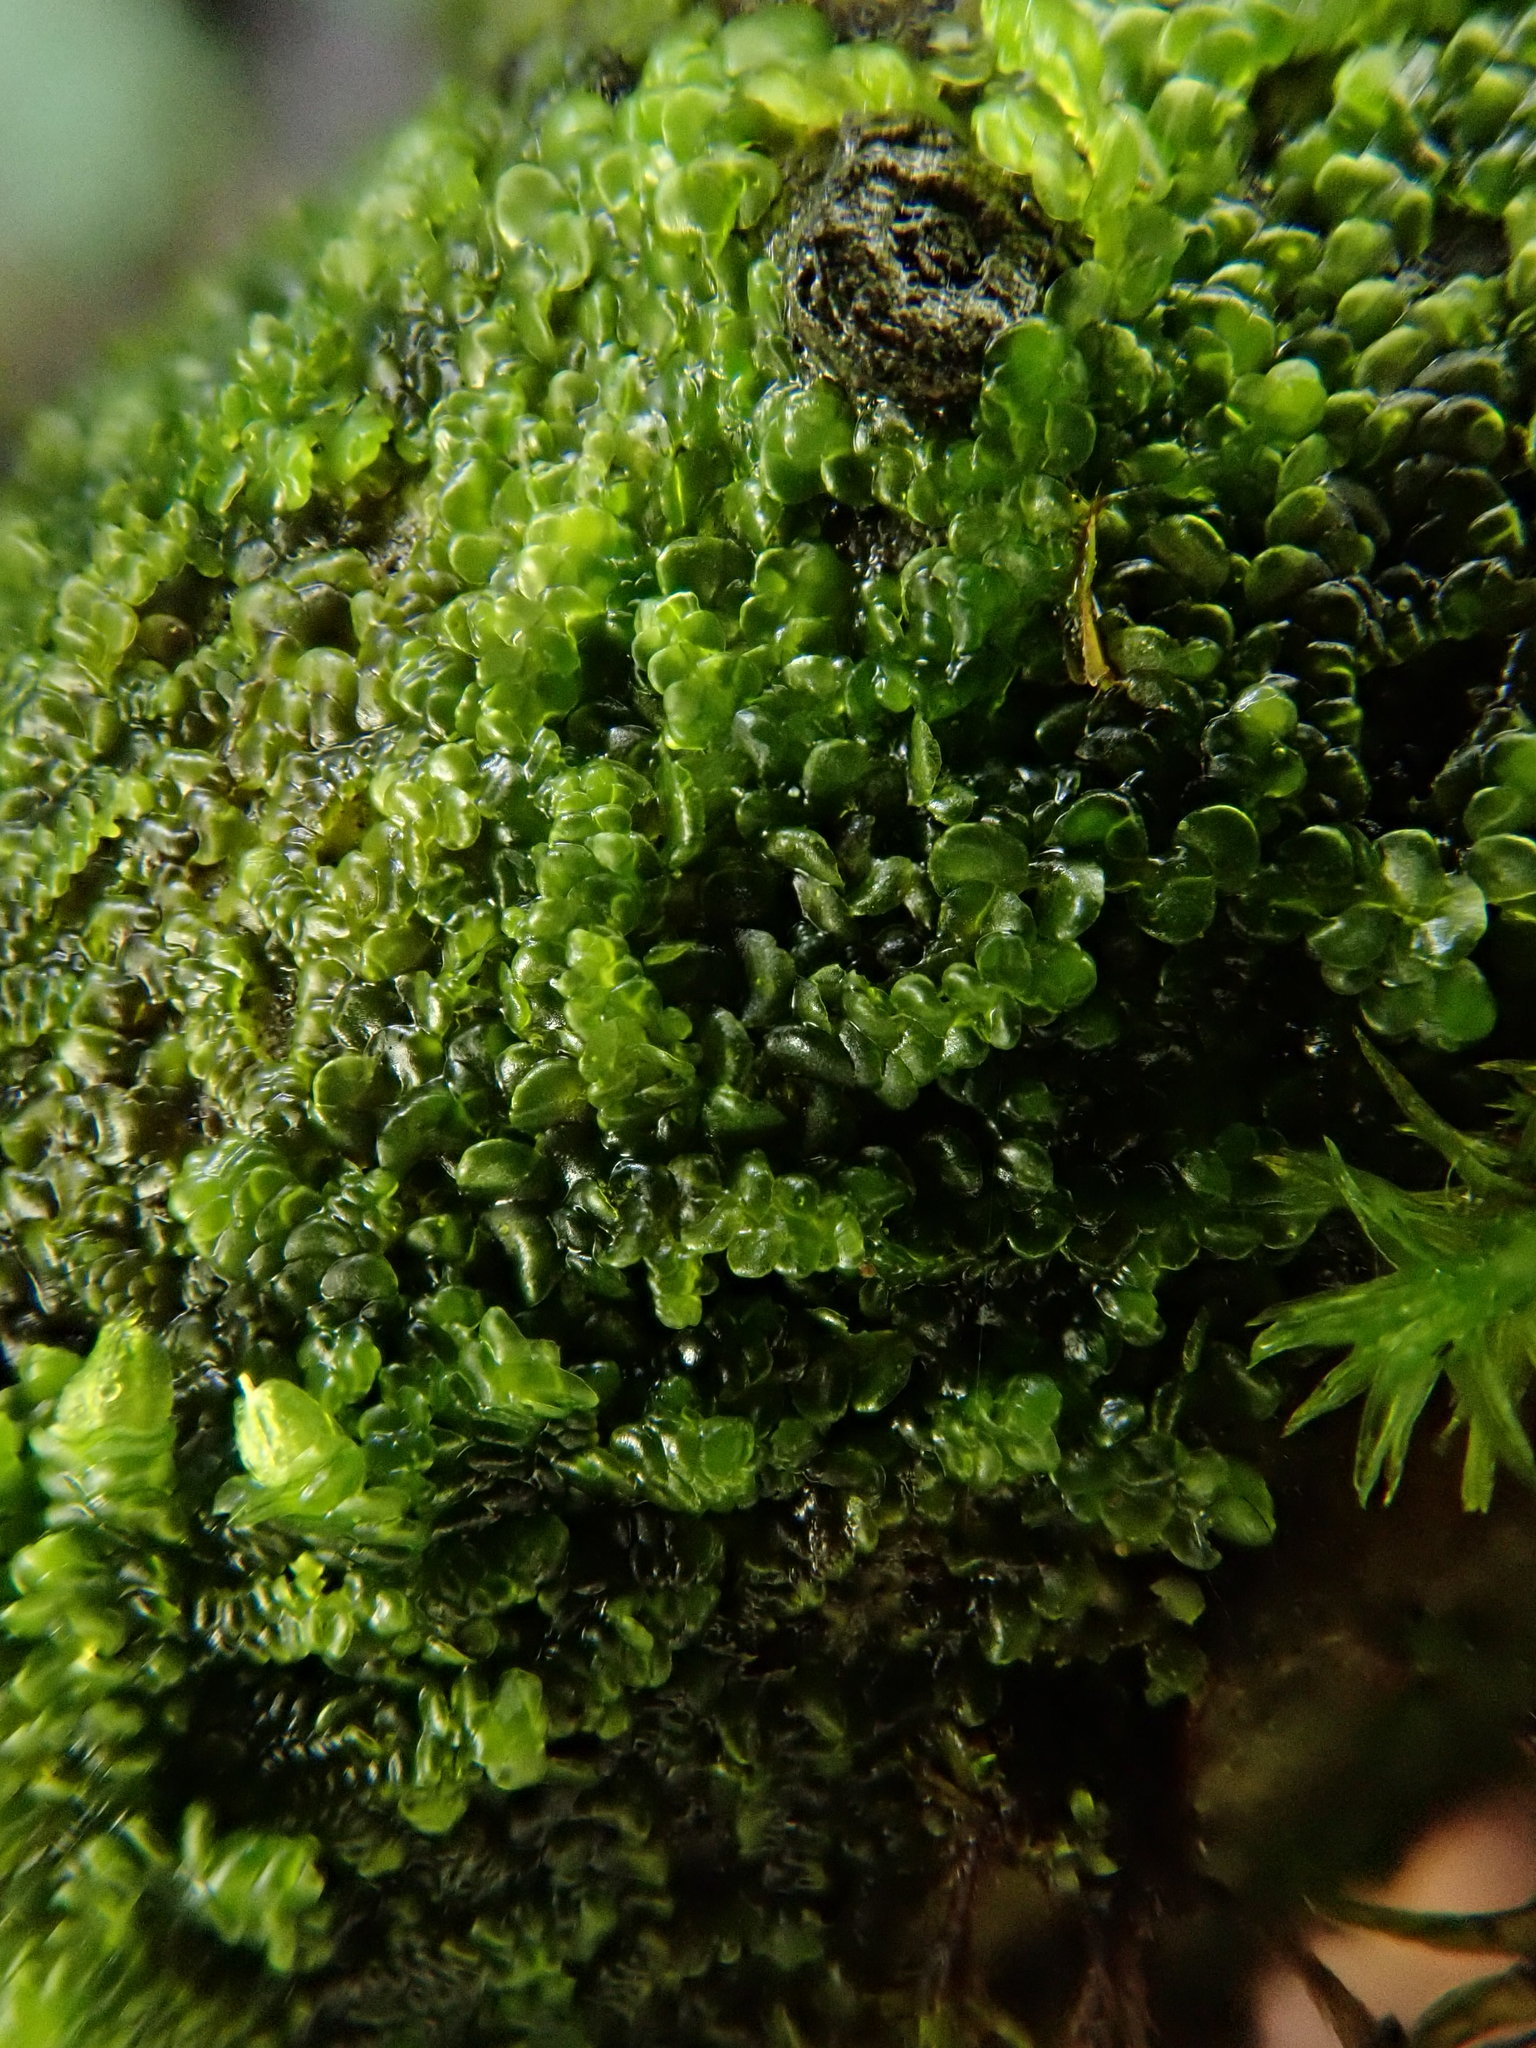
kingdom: Plantae
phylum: Marchantiophyta
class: Jungermanniopsida
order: Porellales
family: Frullaniaceae
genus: Frullania
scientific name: Frullania dilatata
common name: Dilated scalewort
